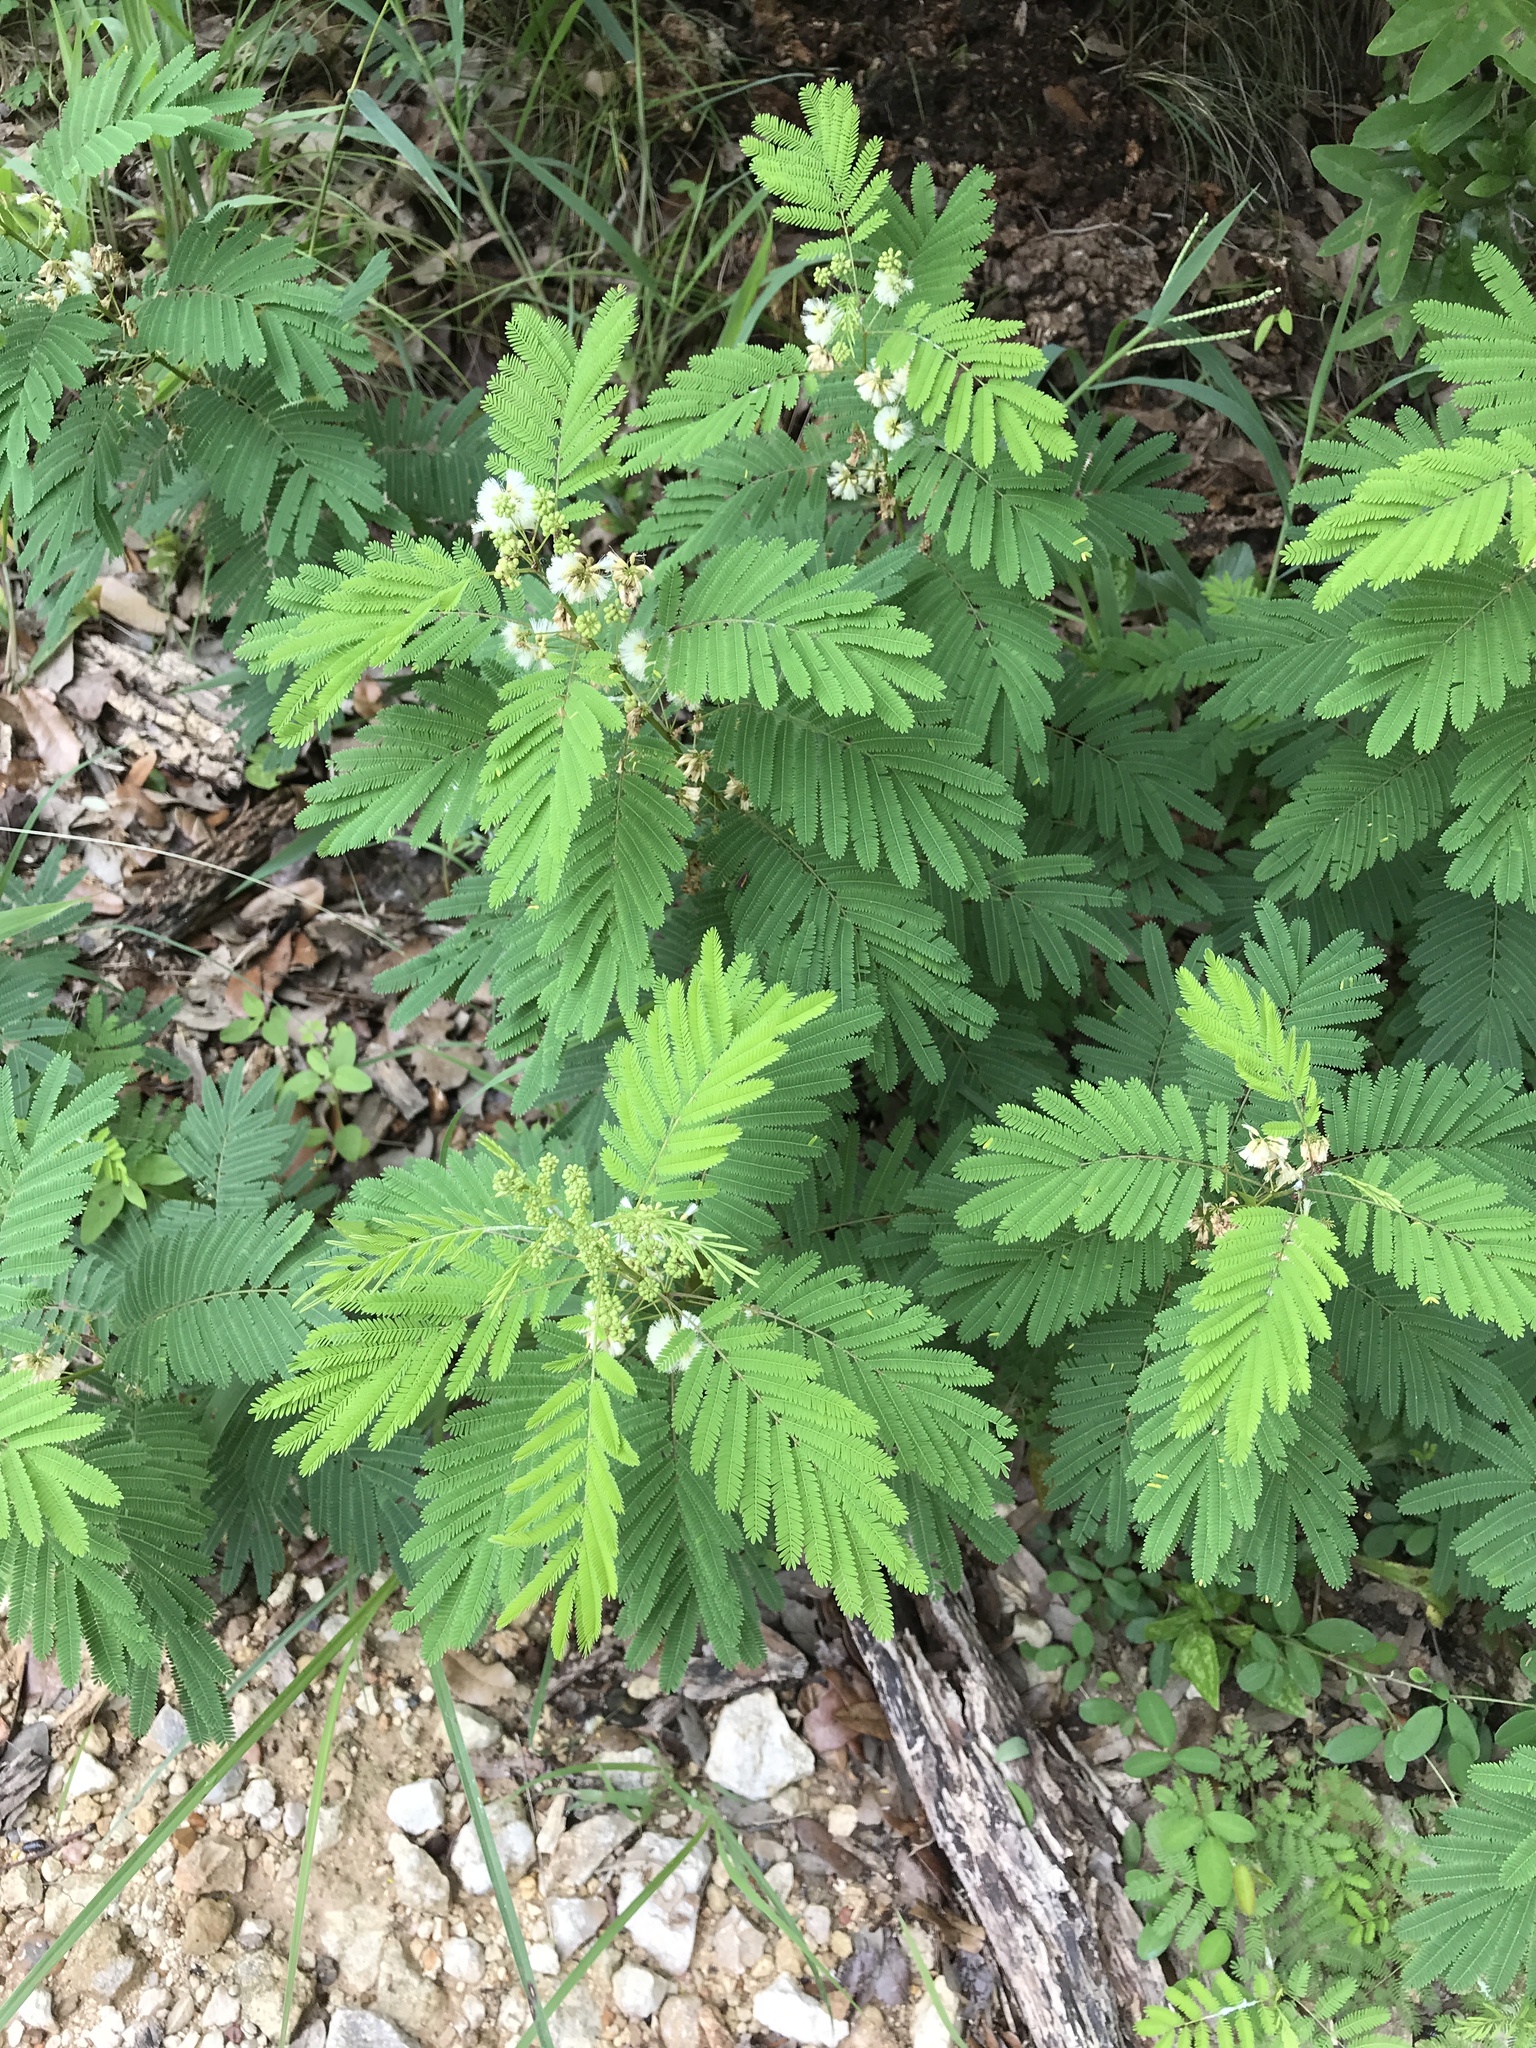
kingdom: Plantae
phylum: Tracheophyta
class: Magnoliopsida
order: Fabales
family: Fabaceae
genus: Acaciella
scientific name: Acaciella angustissima
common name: Prairie acacia
